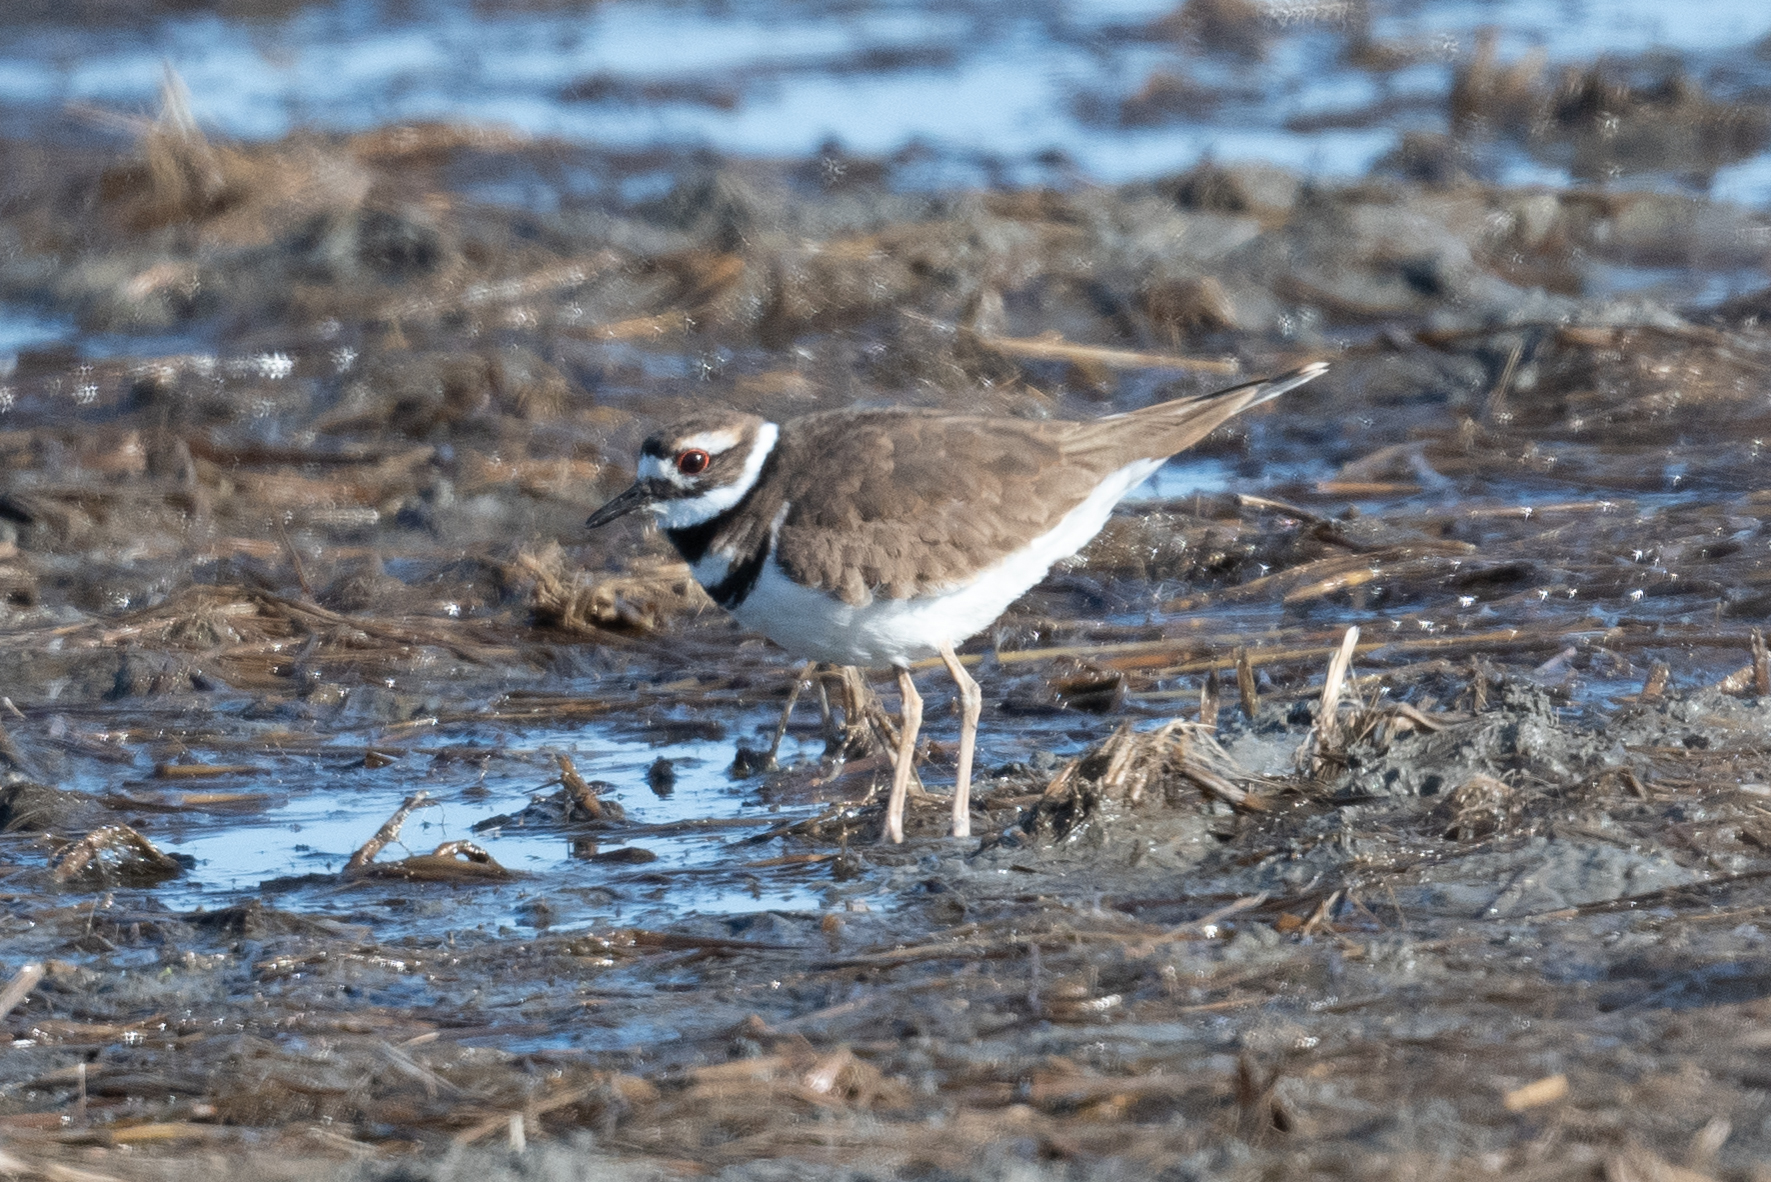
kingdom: Animalia
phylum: Chordata
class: Aves
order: Charadriiformes
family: Charadriidae
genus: Charadrius
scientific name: Charadrius vociferus
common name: Killdeer
